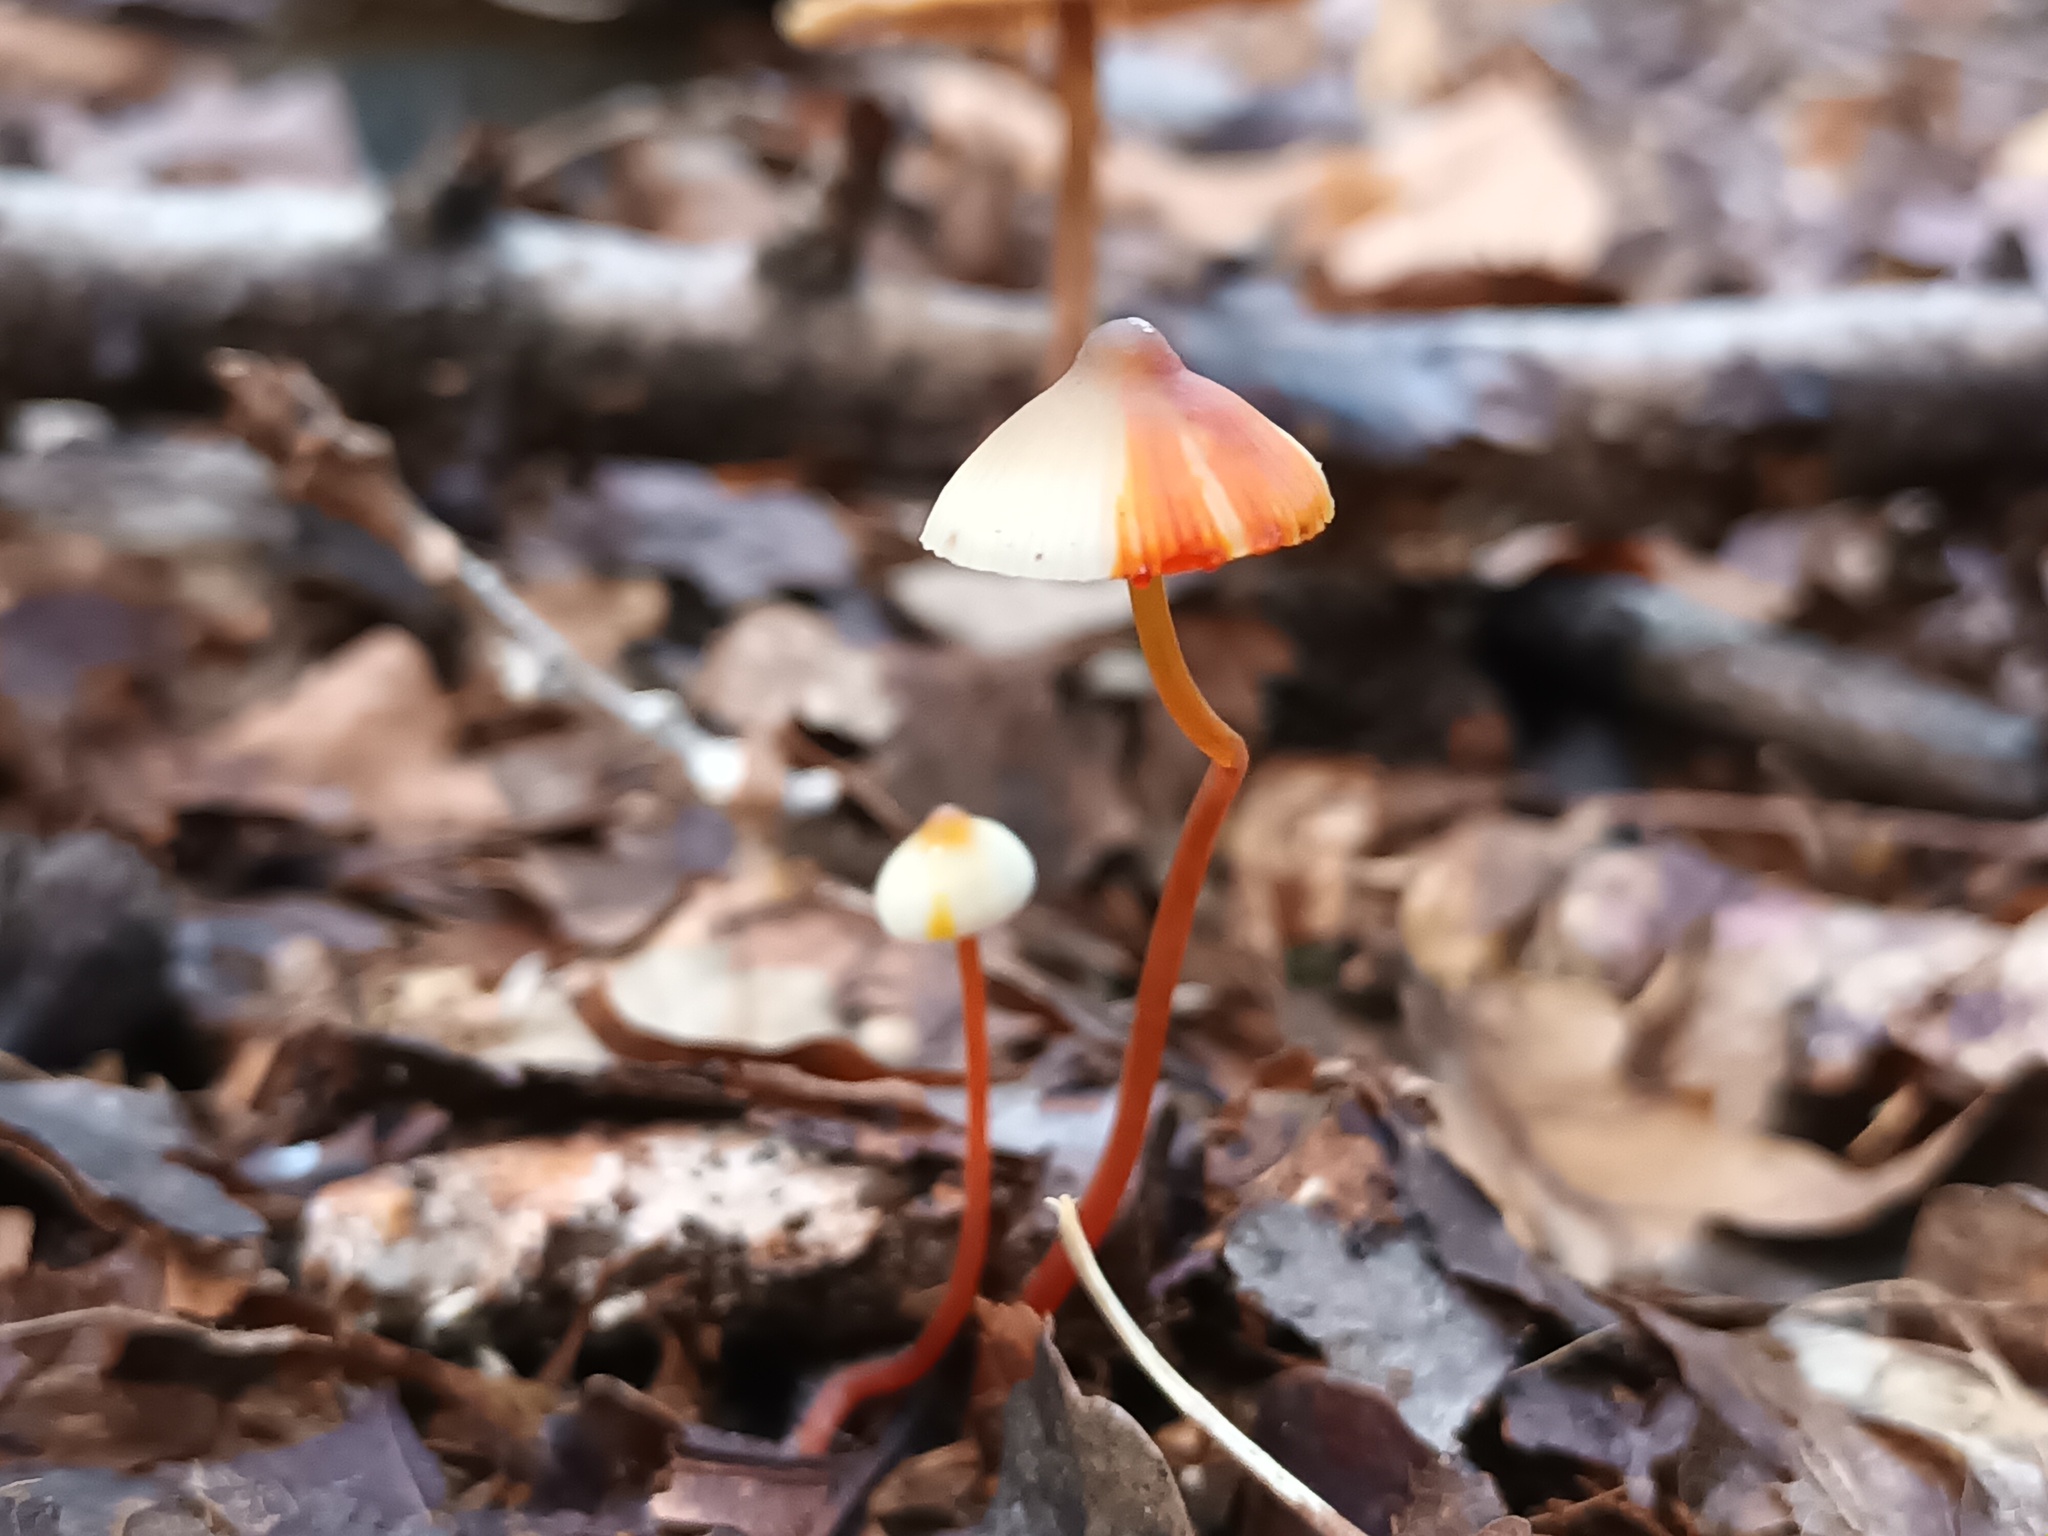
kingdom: Fungi
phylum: Basidiomycota
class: Agaricomycetes
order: Agaricales
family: Mycenaceae
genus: Mycena
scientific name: Mycena crocata
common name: Saffrondrop bonnet
